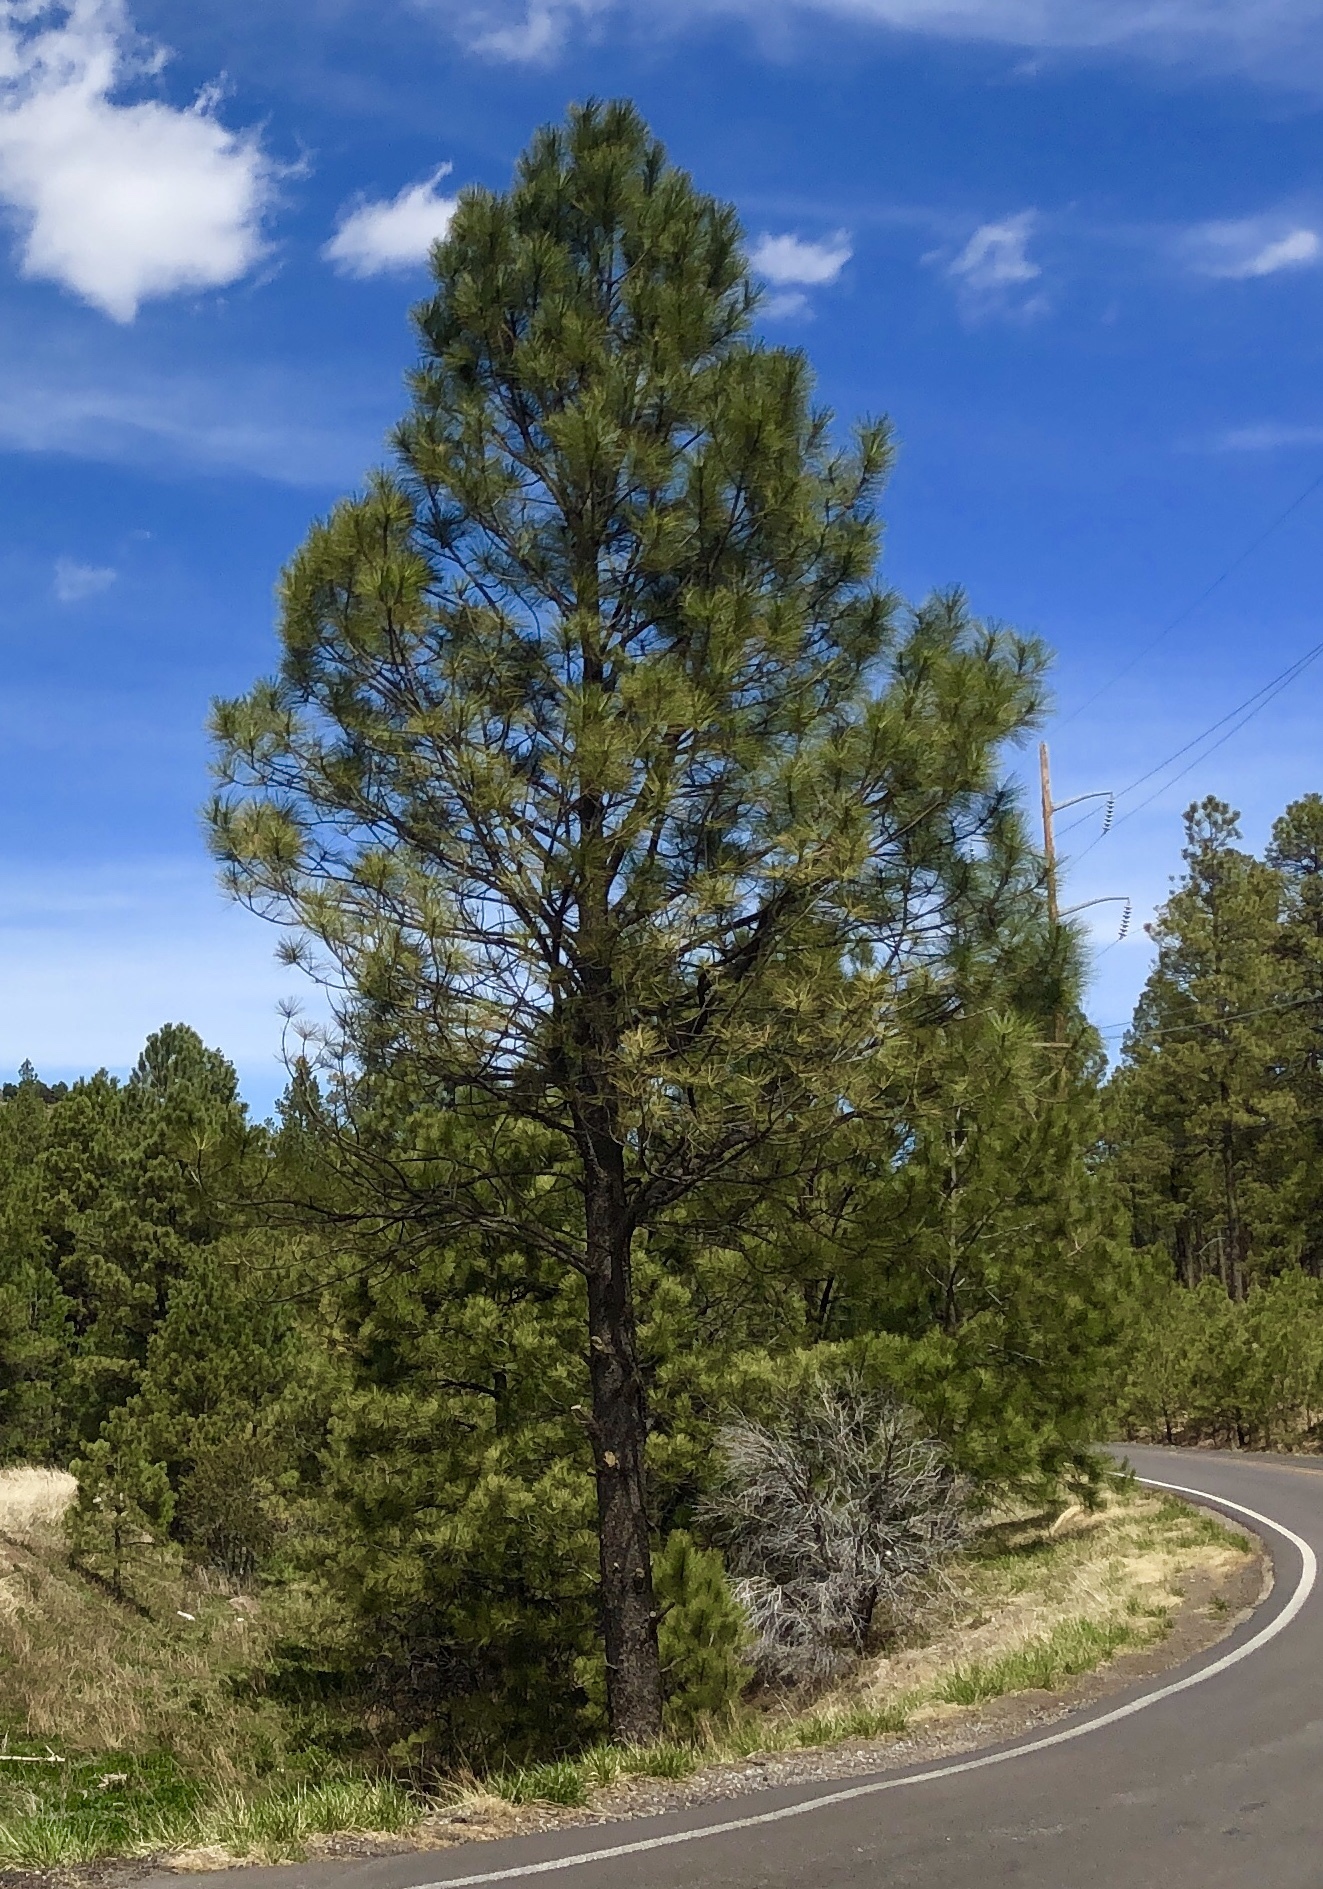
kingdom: Plantae
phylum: Tracheophyta
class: Pinopsida
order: Pinales
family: Pinaceae
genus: Pinus
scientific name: Pinus ponderosa
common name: Western yellow-pine
